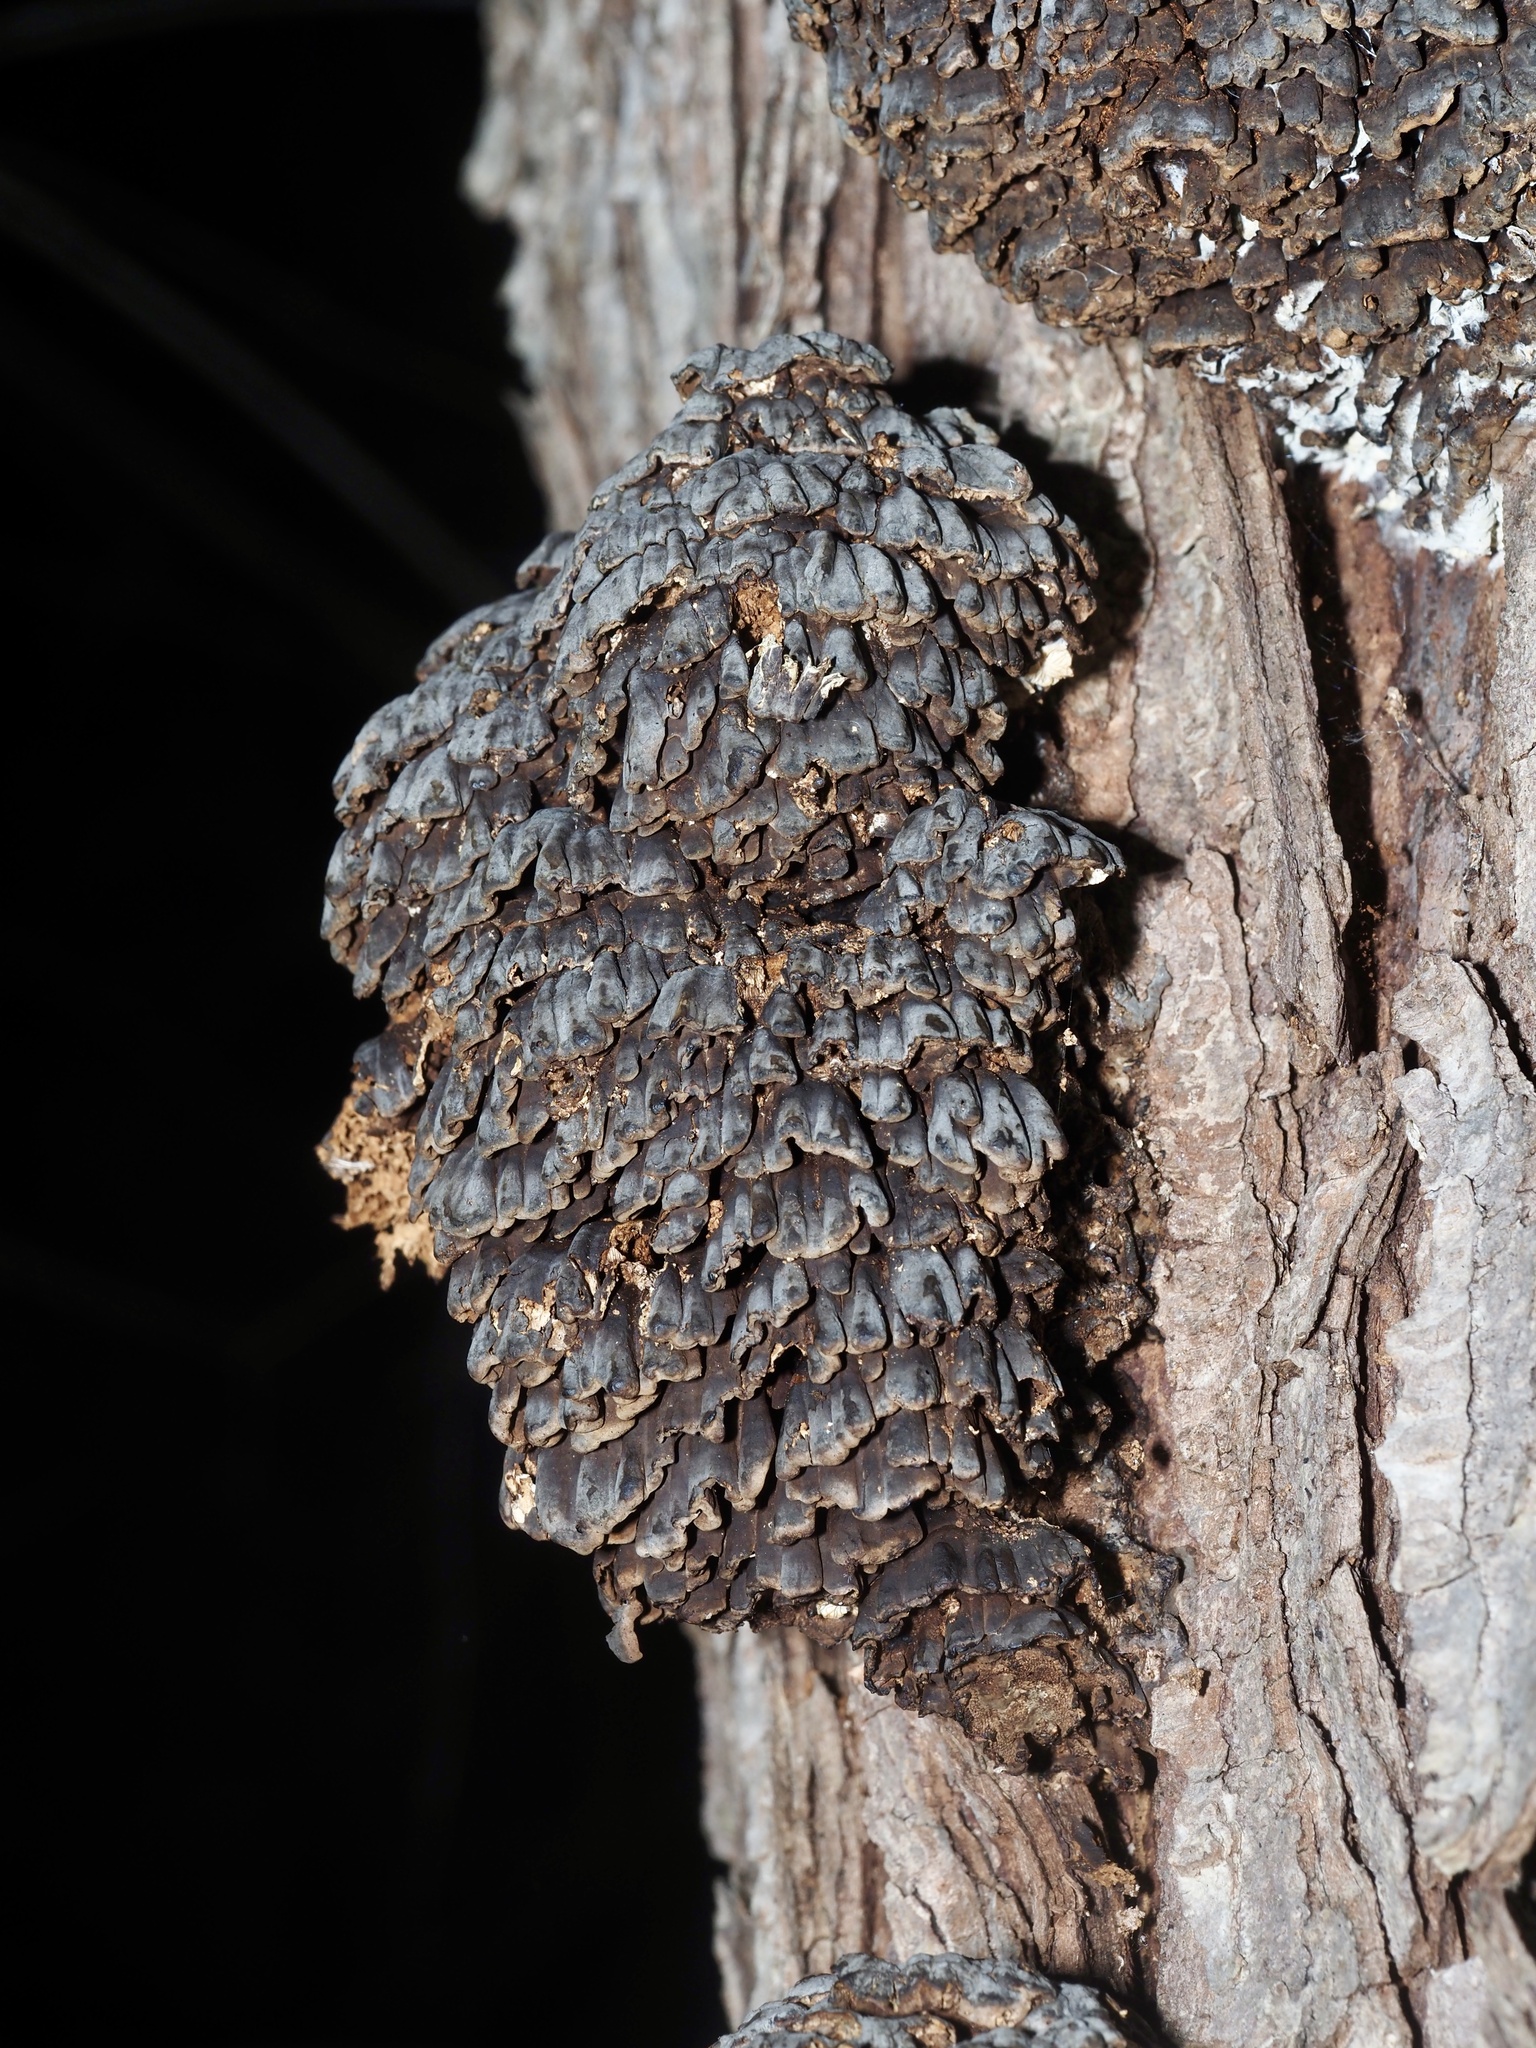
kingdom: Fungi
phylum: Basidiomycota
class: Agaricomycetes
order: Polyporales
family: Polyporaceae
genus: Globifomes
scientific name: Globifomes graveolens
